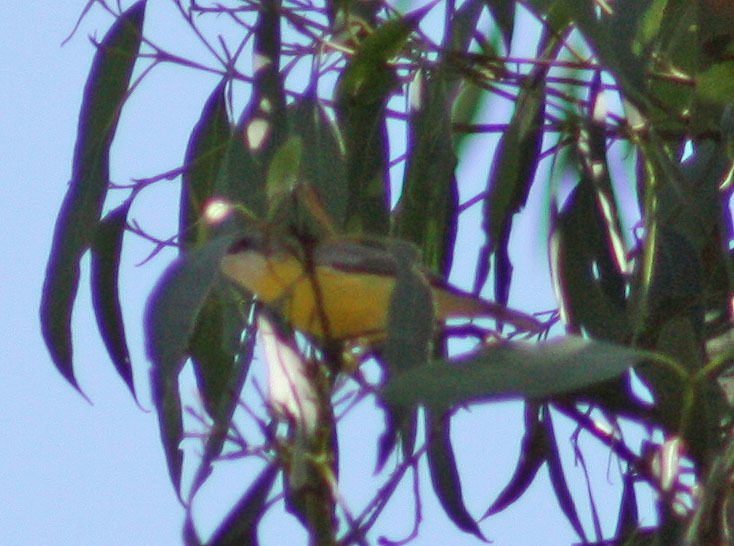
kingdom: Animalia
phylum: Chordata
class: Aves
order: Passeriformes
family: Acanthizidae
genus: Gerygone
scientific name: Gerygone olivacea
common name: White-throated gerygone
